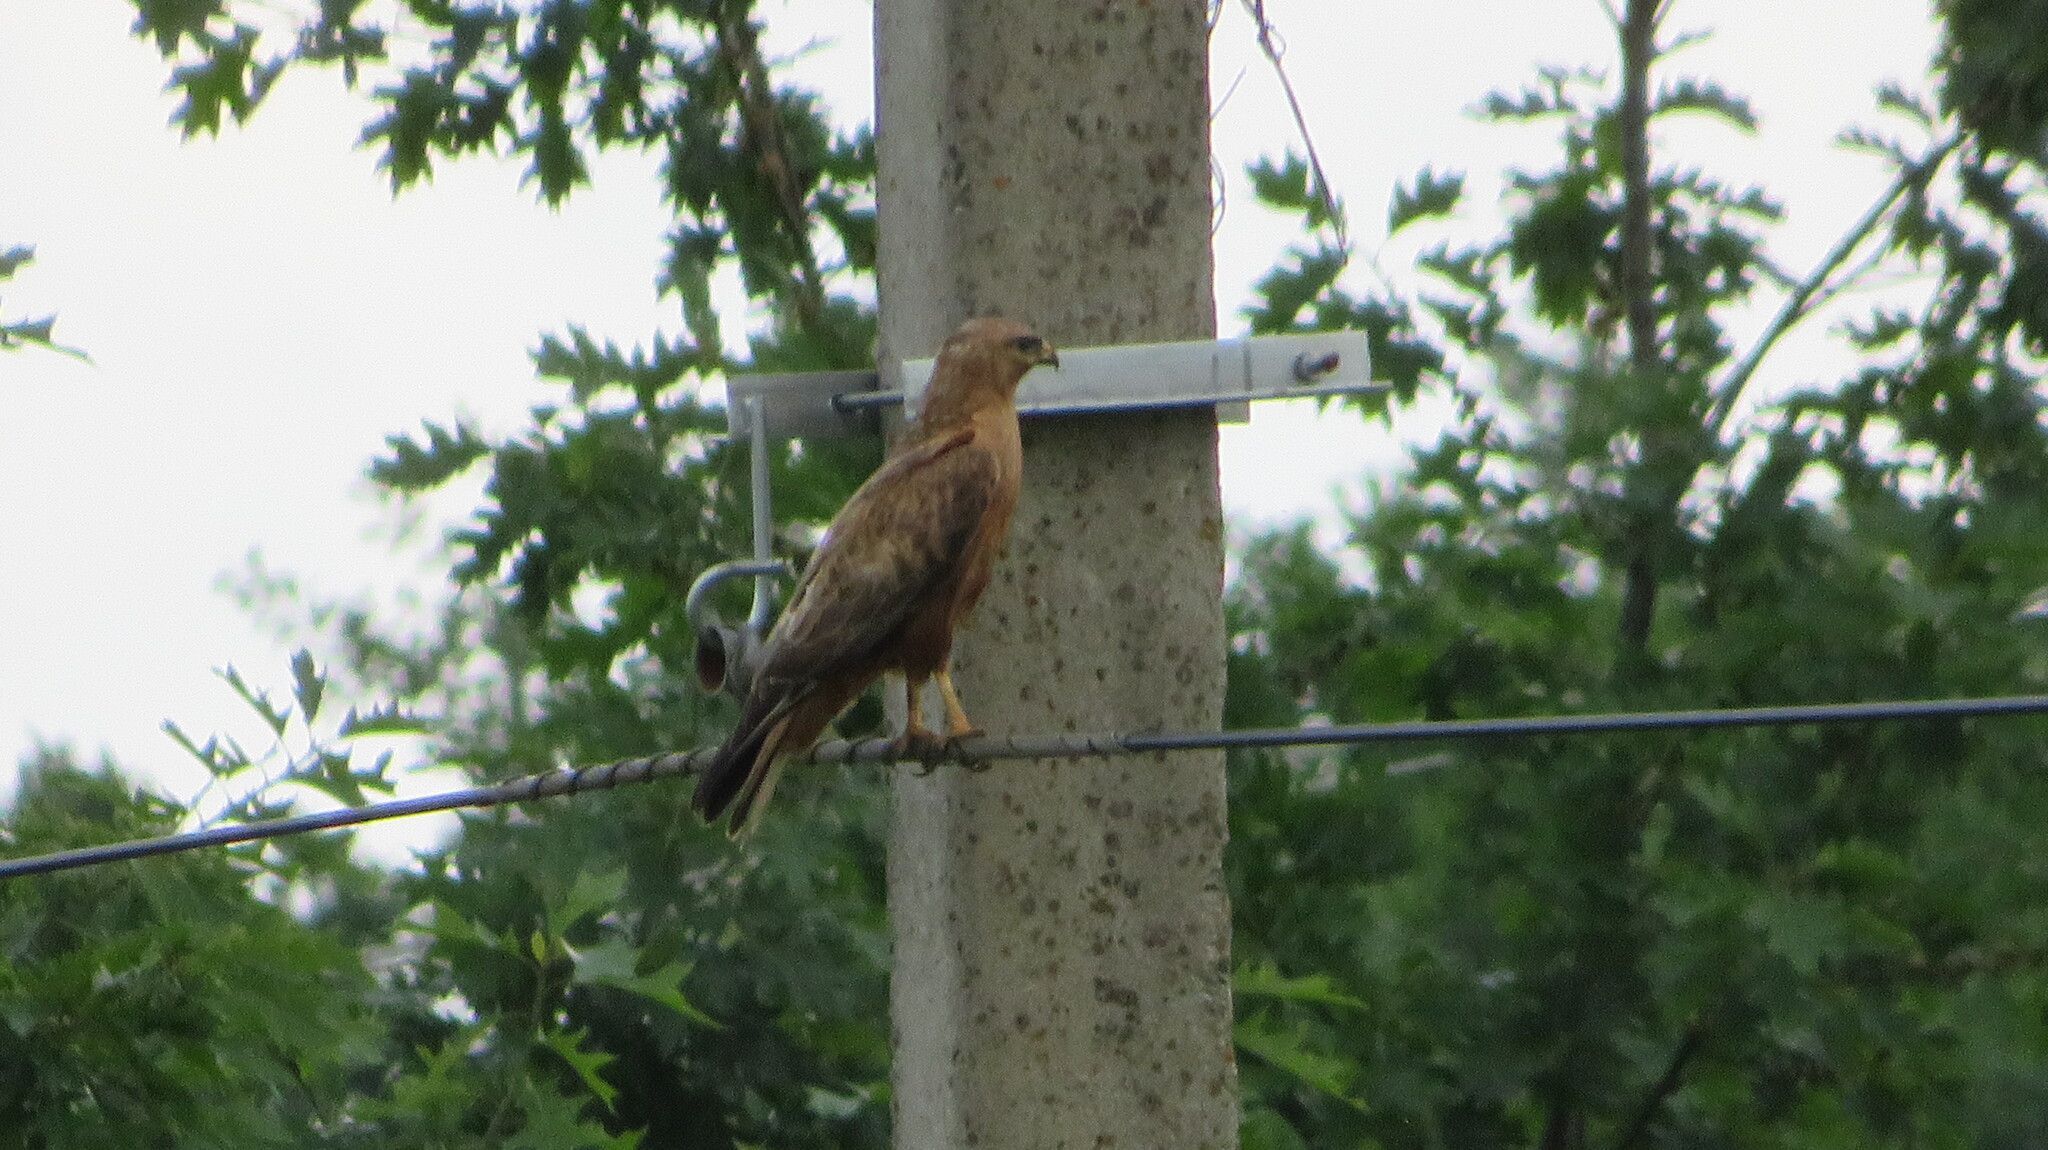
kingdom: Animalia
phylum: Chordata
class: Aves
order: Accipitriformes
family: Accipitridae
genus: Buteo
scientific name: Buteo rufinus
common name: Long-legged buzzard
